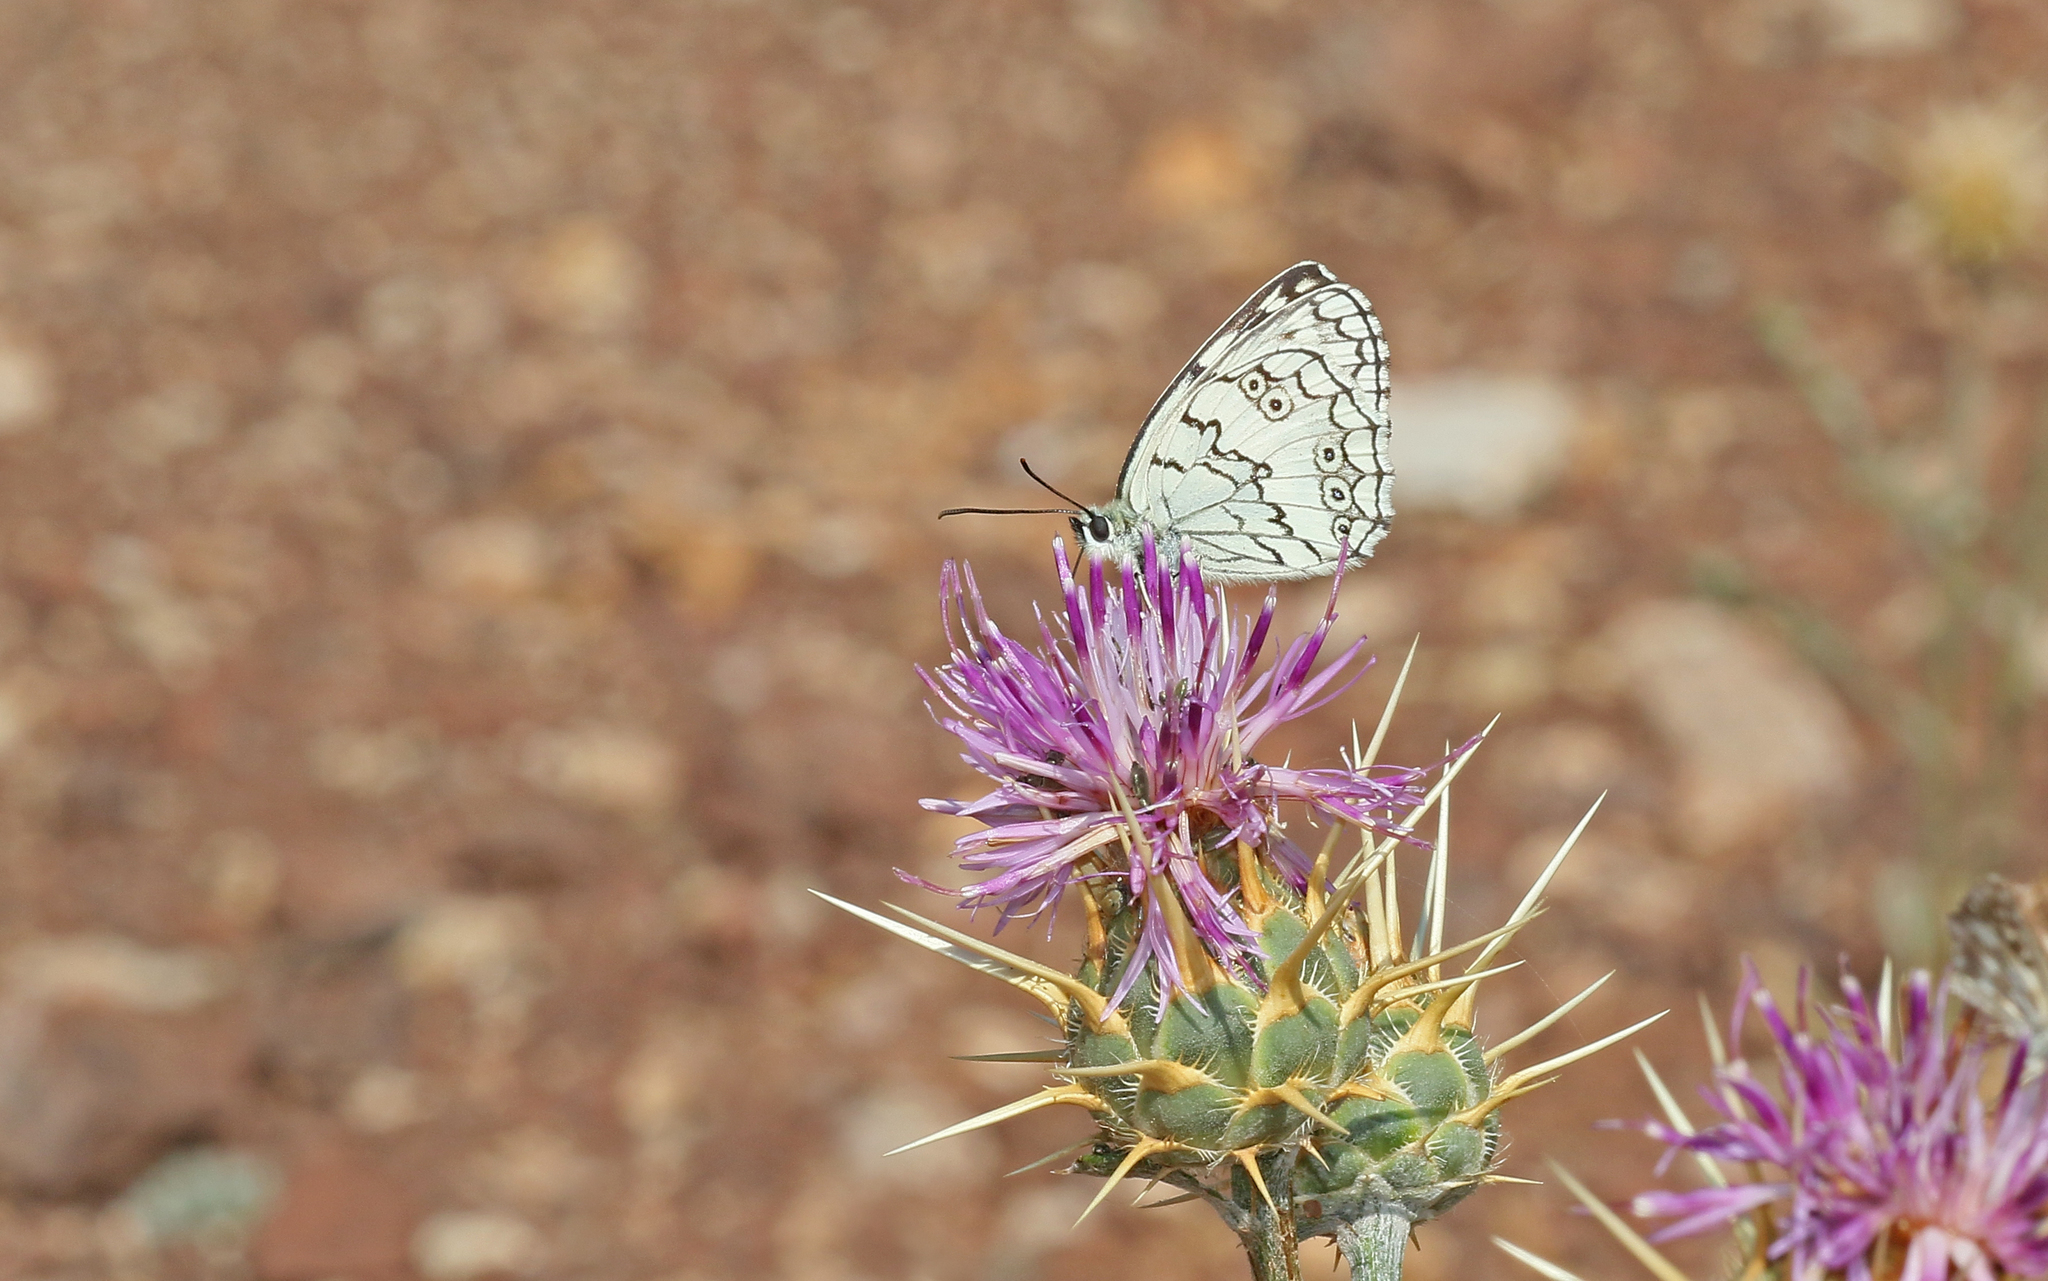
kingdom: Animalia
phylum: Arthropoda
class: Insecta
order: Lepidoptera
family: Nymphalidae
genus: Melanargia
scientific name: Melanargia larissa
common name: Balkan marbled white
